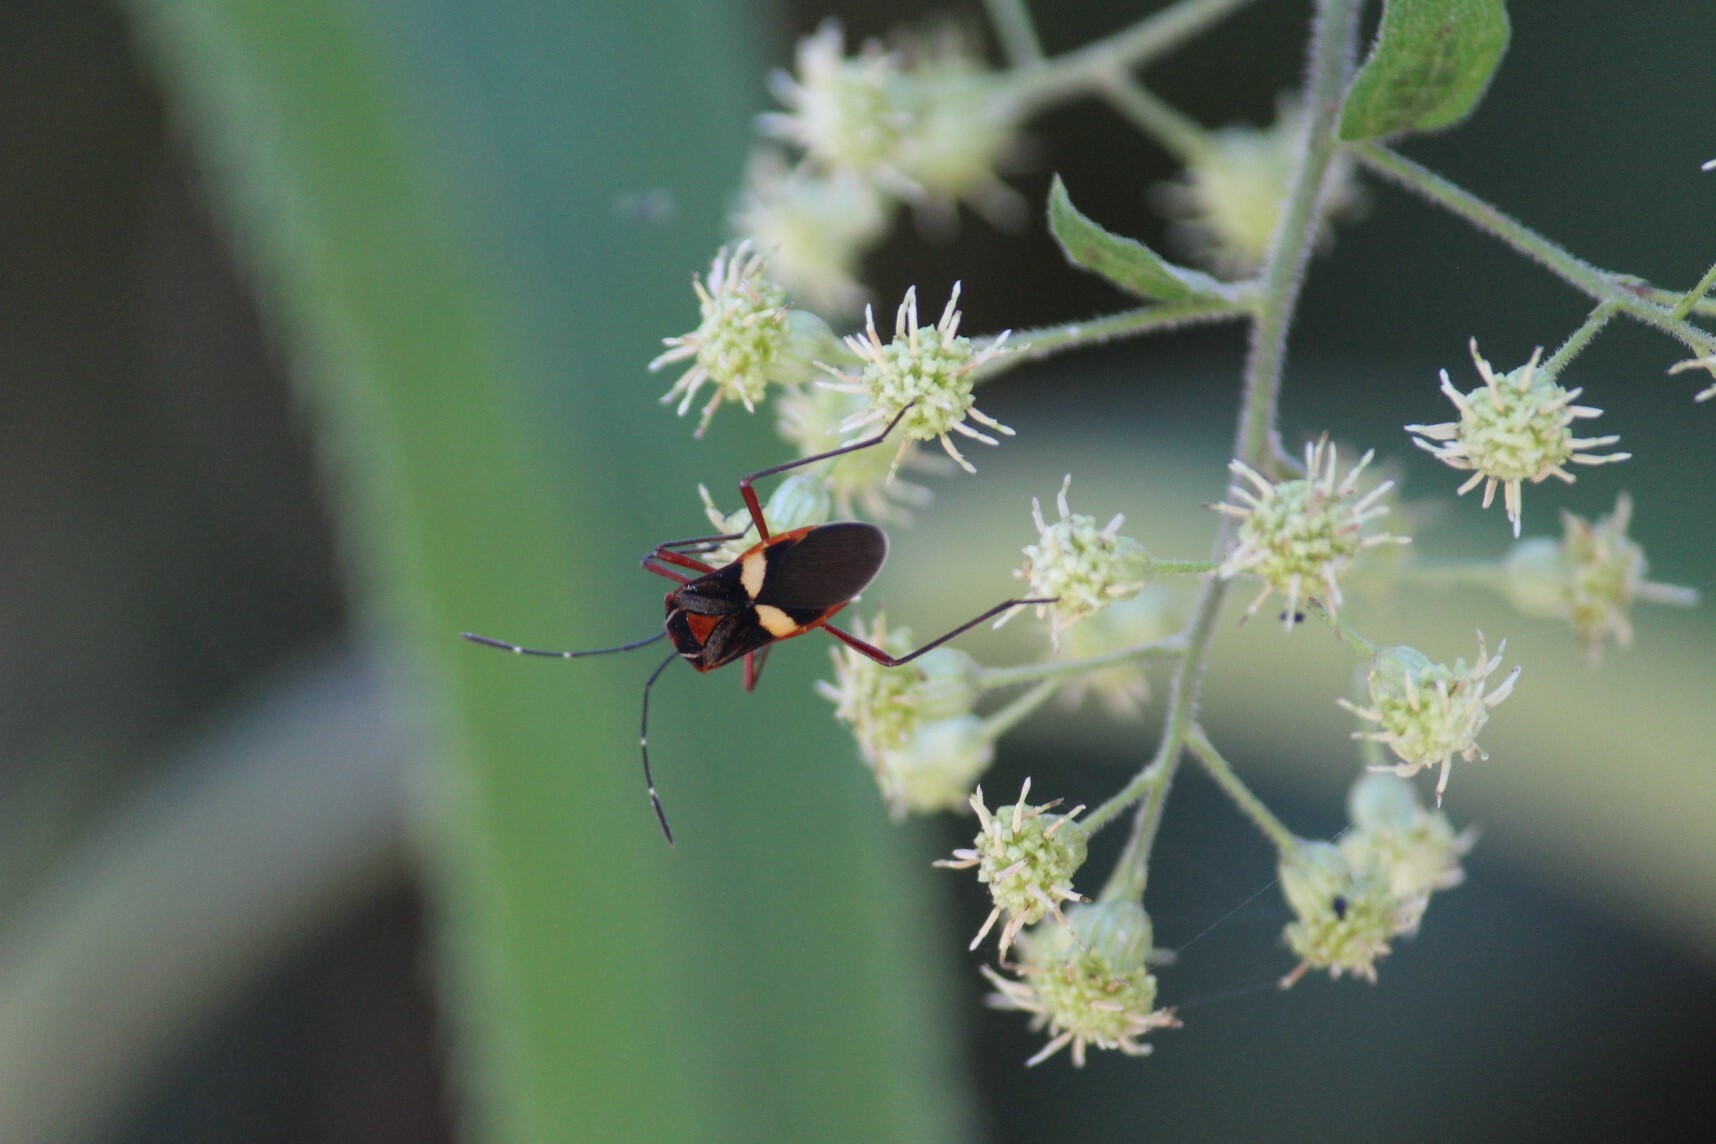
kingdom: Animalia
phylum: Arthropoda
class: Insecta
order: Hemiptera
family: Coreidae
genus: Hypselonotus
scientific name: Hypselonotus interruptus
